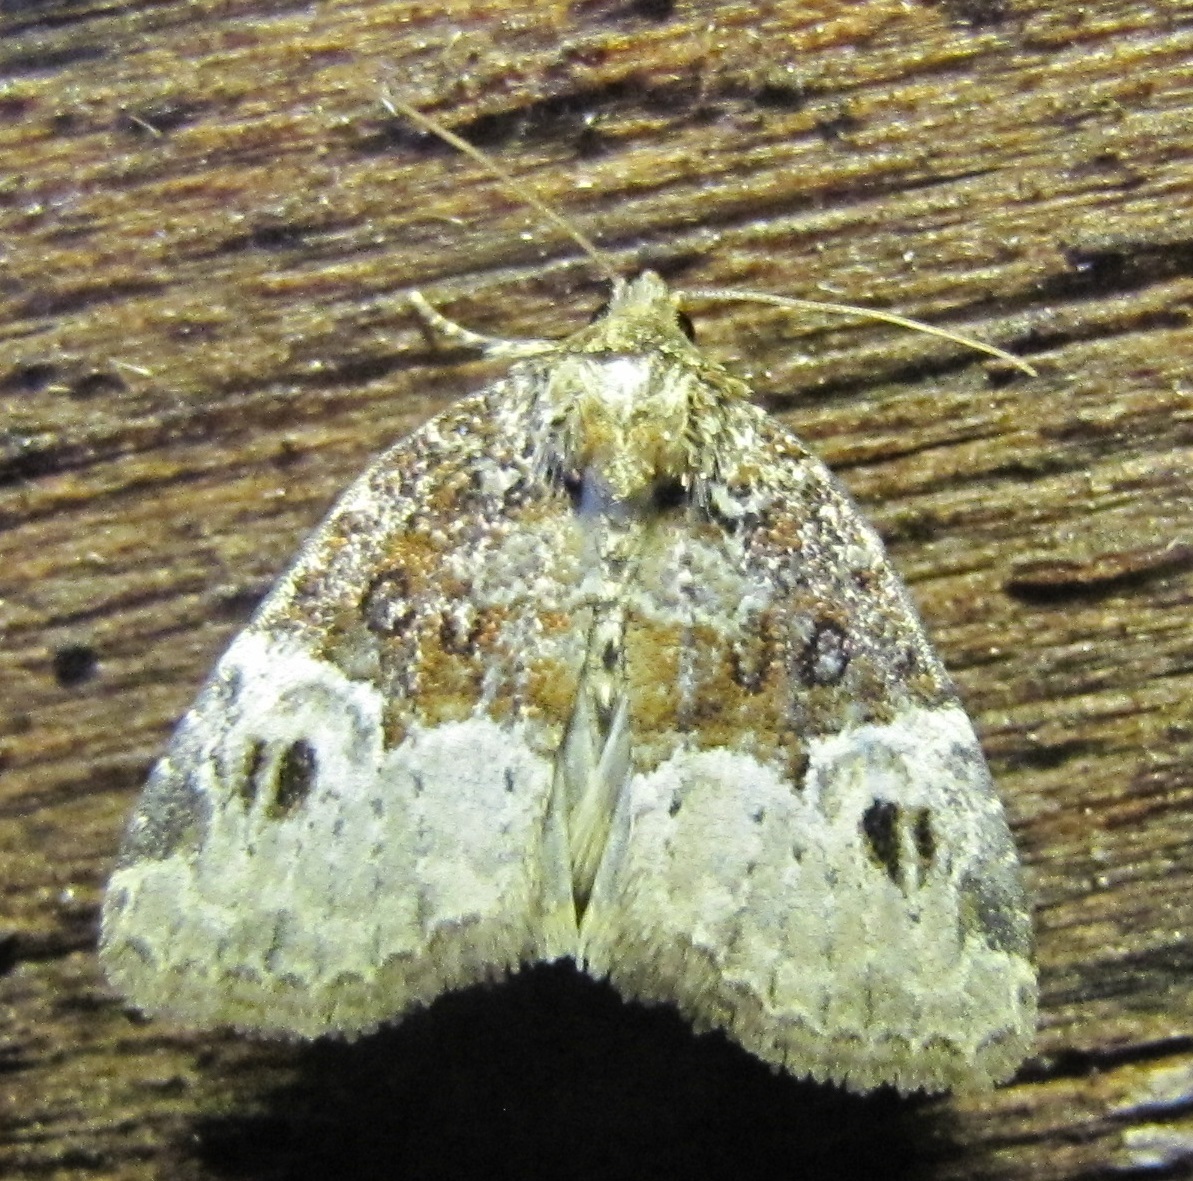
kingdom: Animalia
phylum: Arthropoda
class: Insecta
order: Lepidoptera
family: Noctuidae
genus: Neoligia
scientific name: Neoligia crytora
